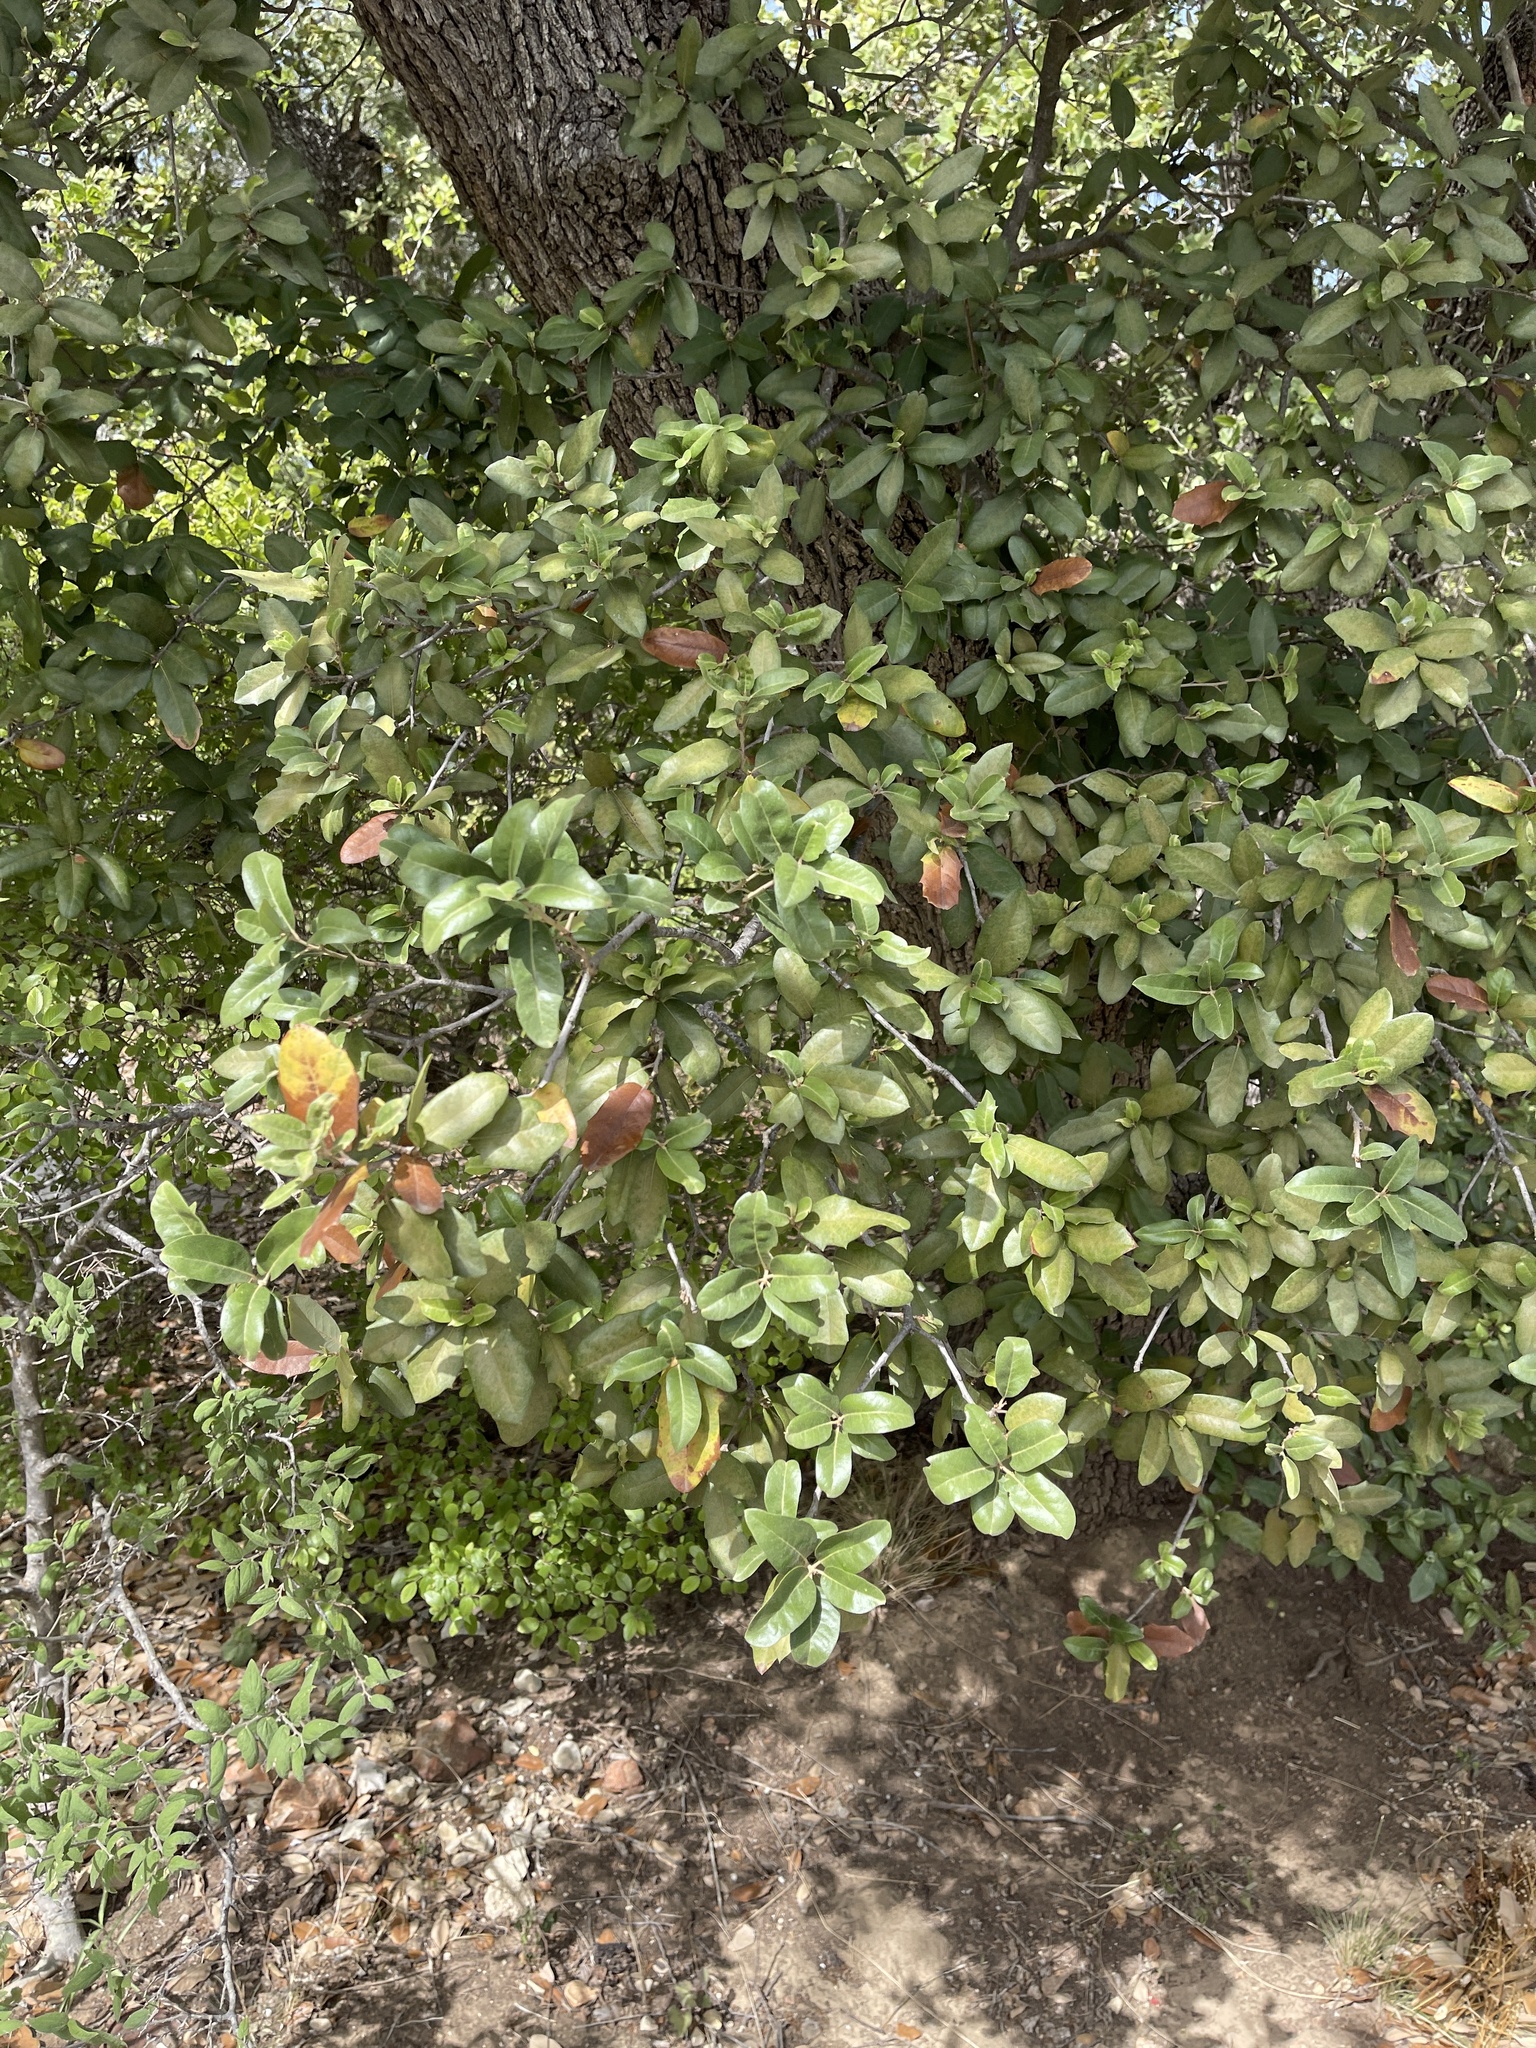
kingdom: Plantae
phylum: Tracheophyta
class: Magnoliopsida
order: Fagales
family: Fagaceae
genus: Quercus
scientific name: Quercus fusiformis
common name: Texas live oak
